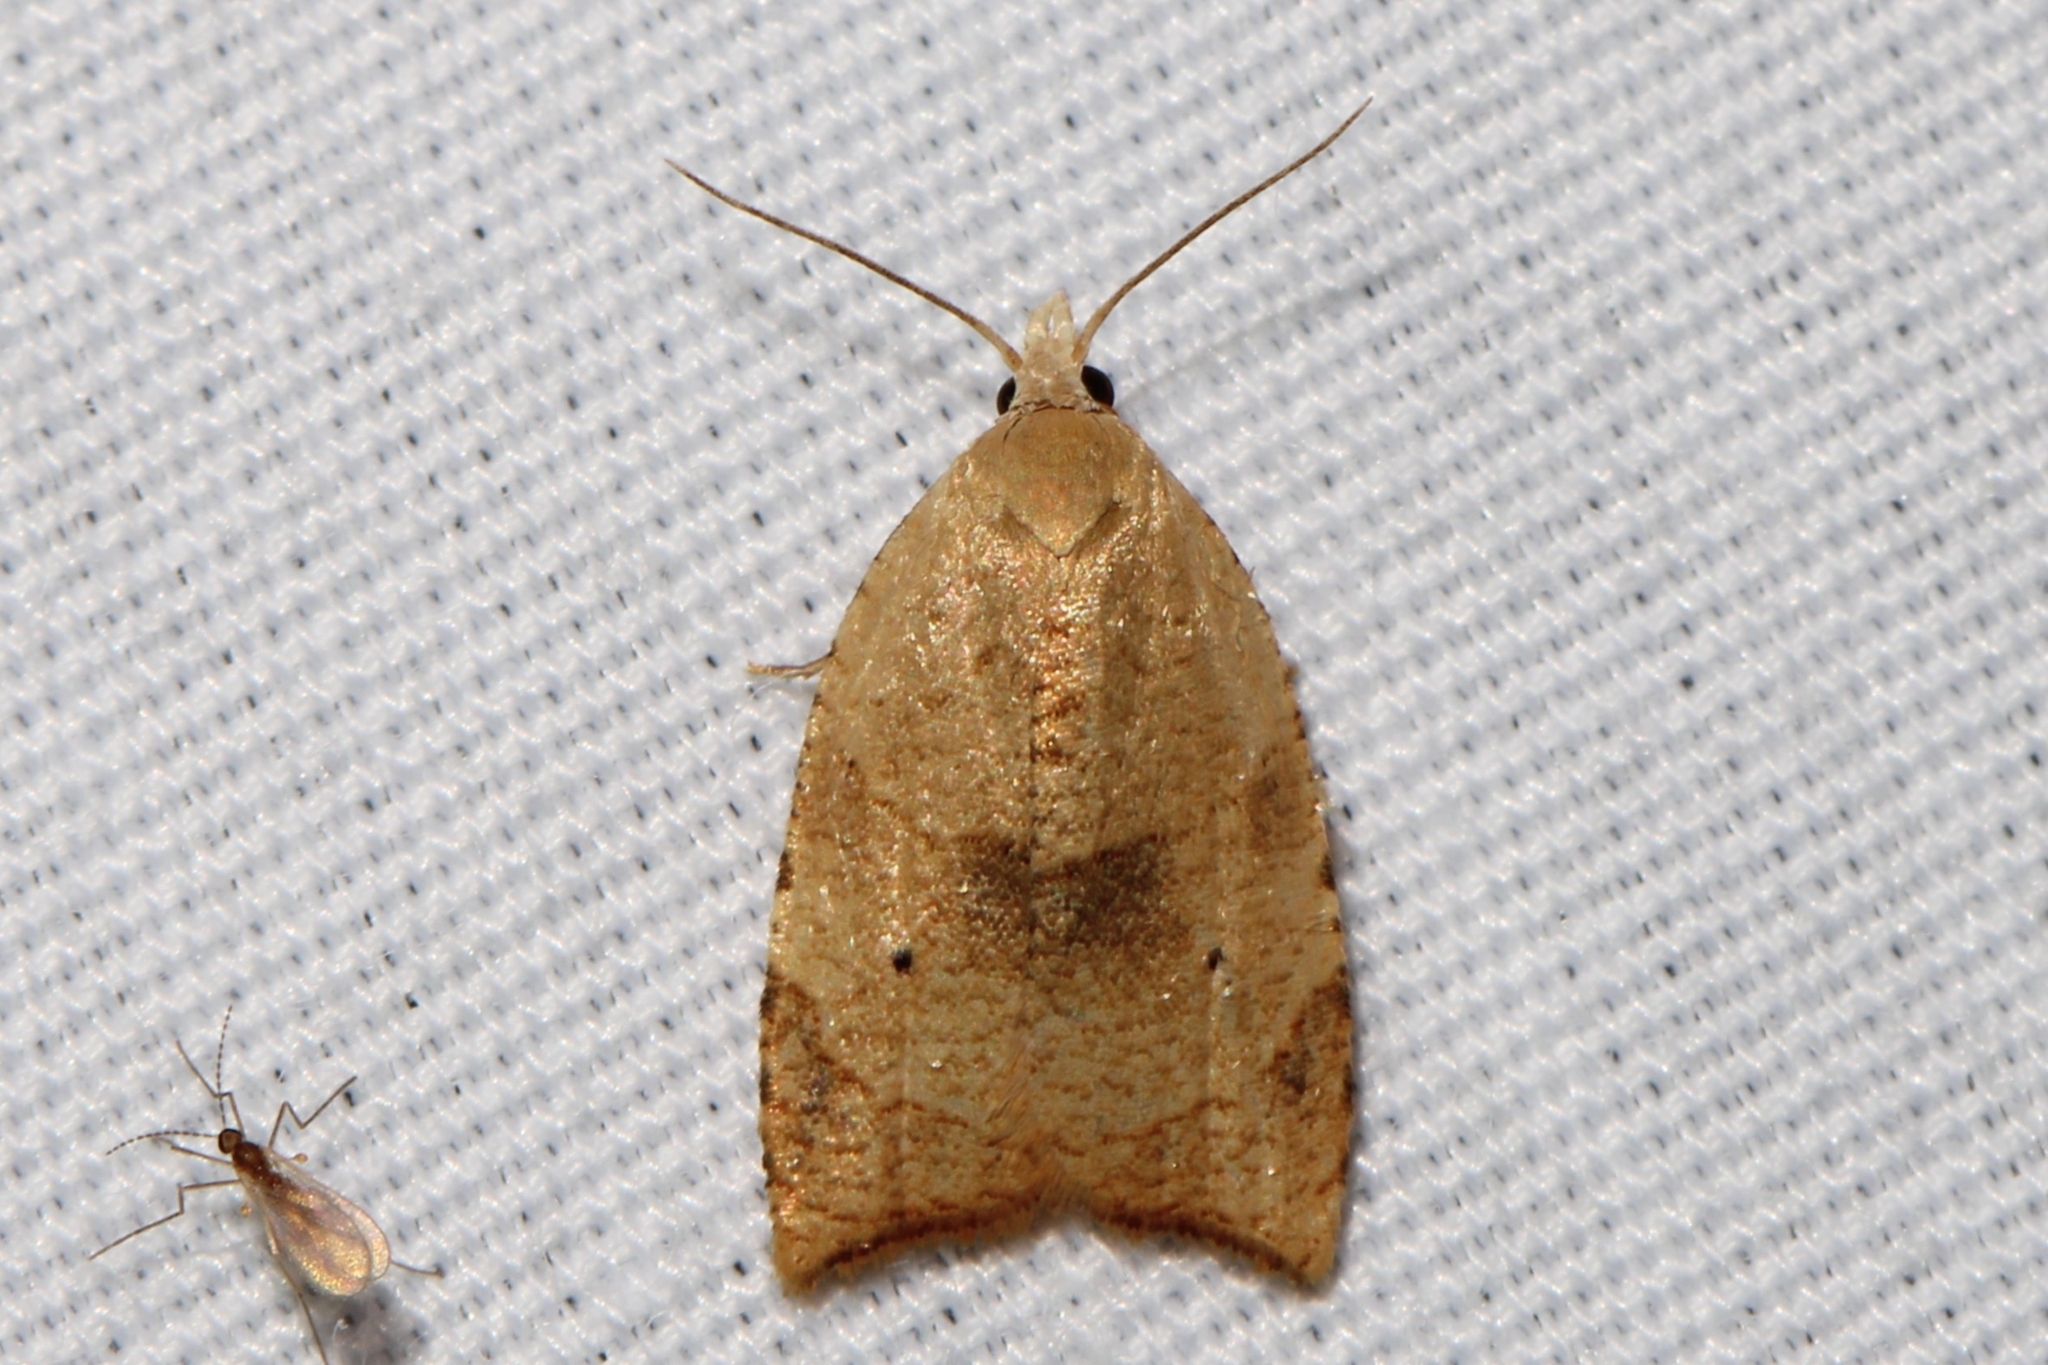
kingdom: Animalia
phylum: Arthropoda
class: Insecta
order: Lepidoptera
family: Tortricidae
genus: Coelostathma
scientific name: Coelostathma discopunctana
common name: Batman moth
